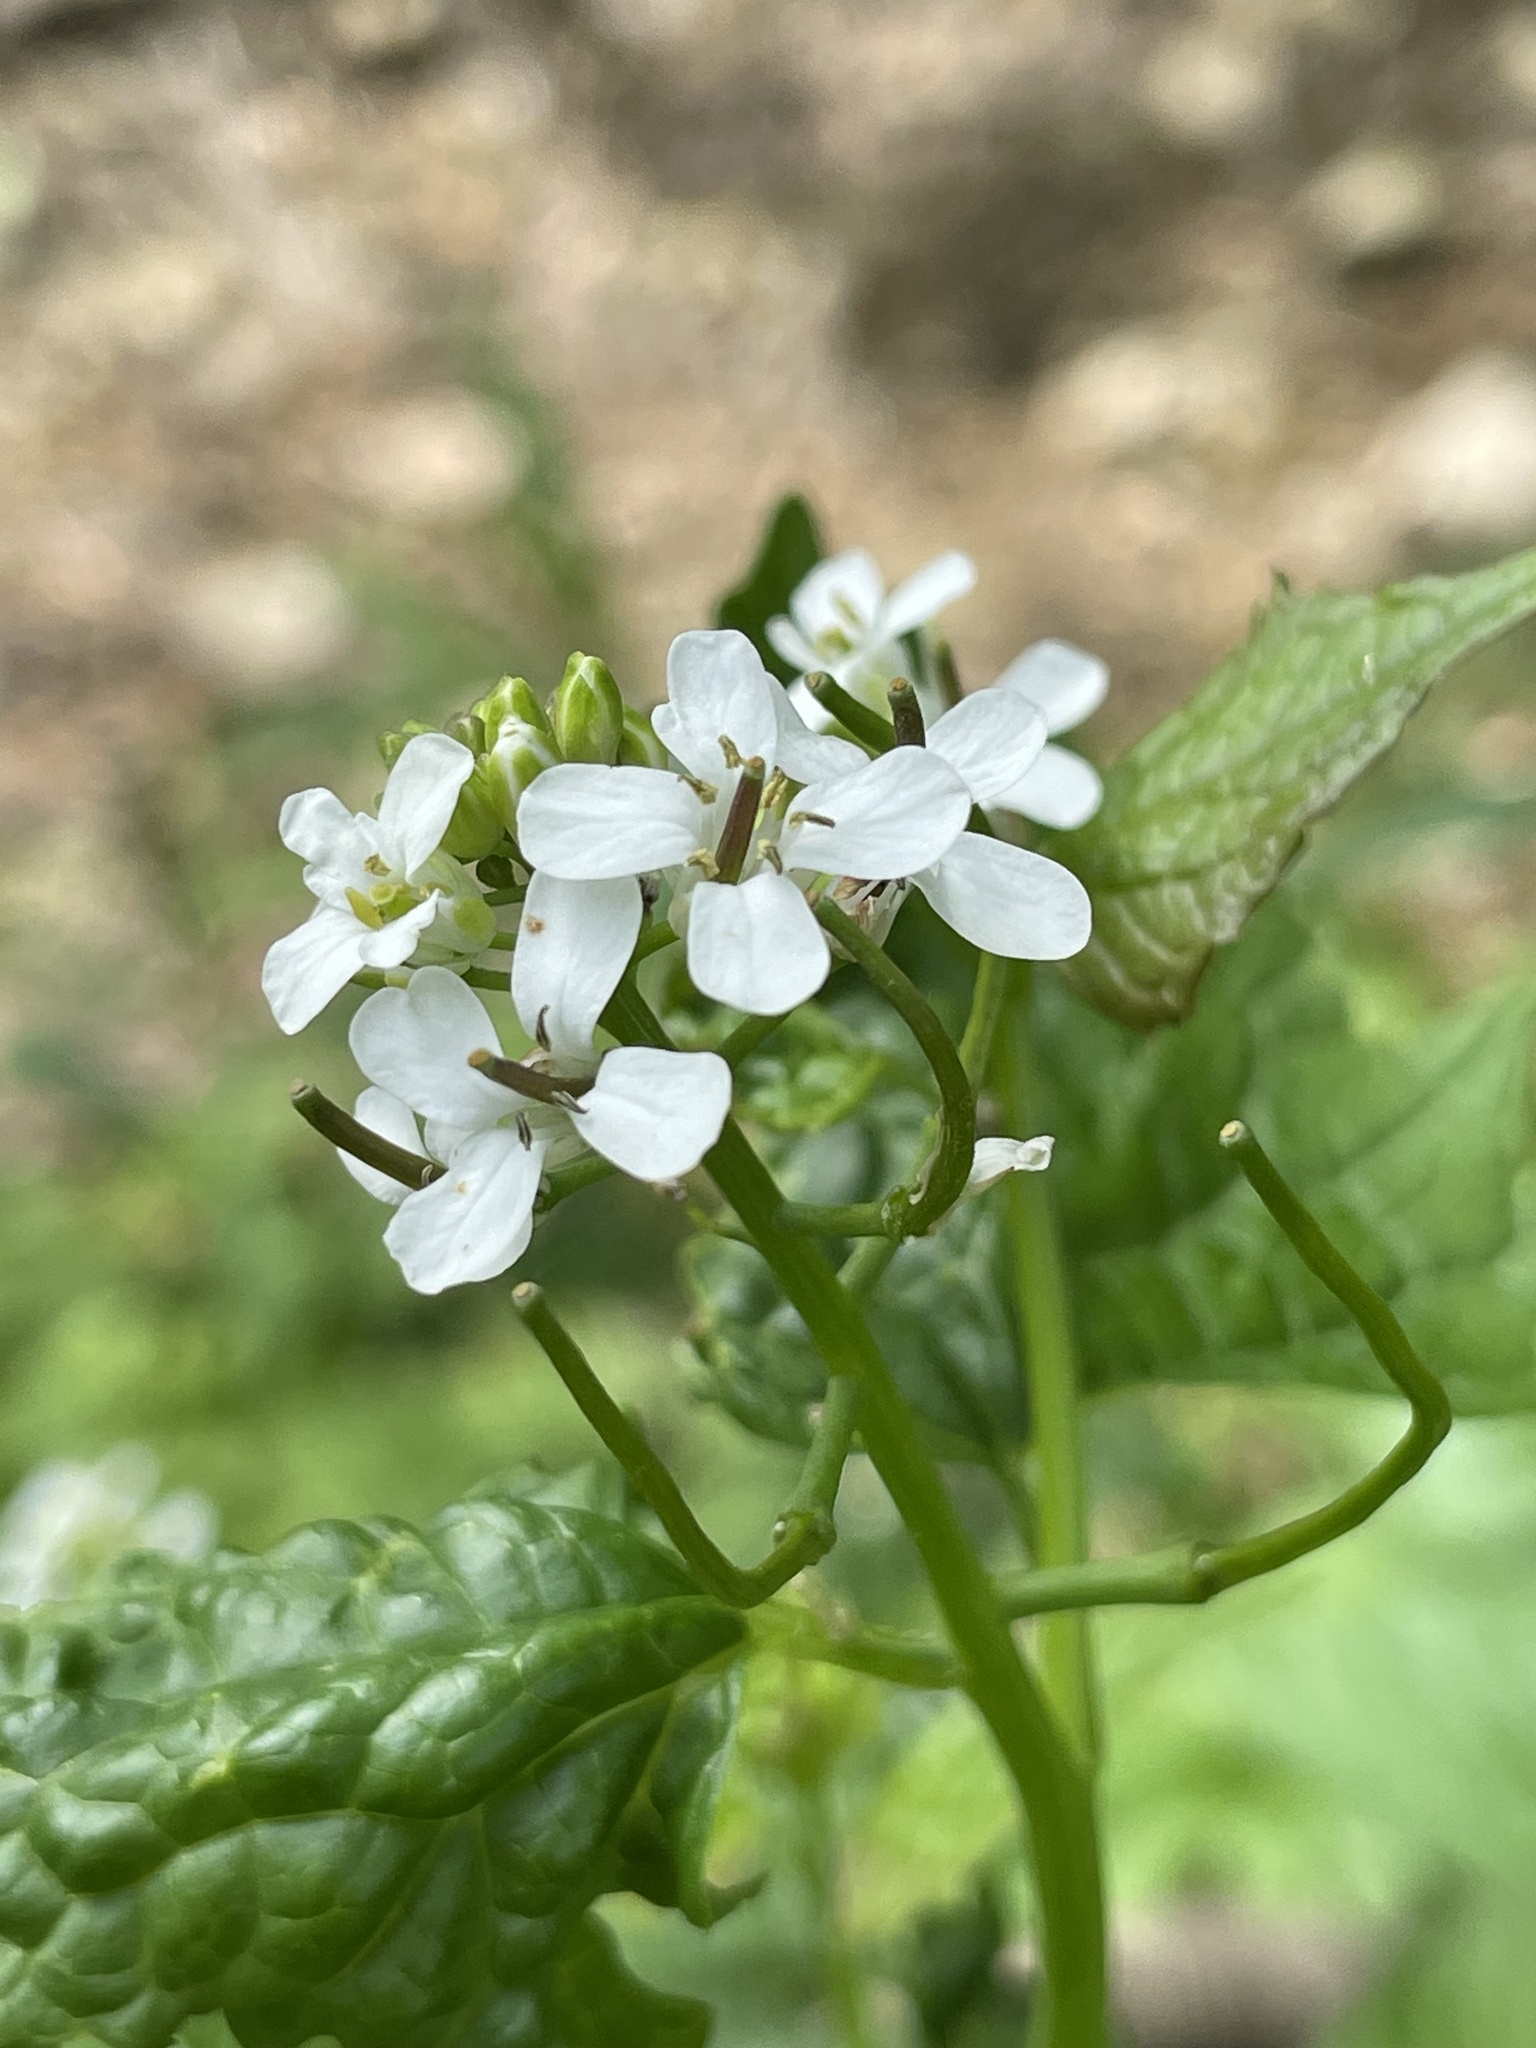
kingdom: Plantae
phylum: Tracheophyta
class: Magnoliopsida
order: Brassicales
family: Brassicaceae
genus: Alliaria
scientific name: Alliaria petiolata
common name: Garlic mustard
